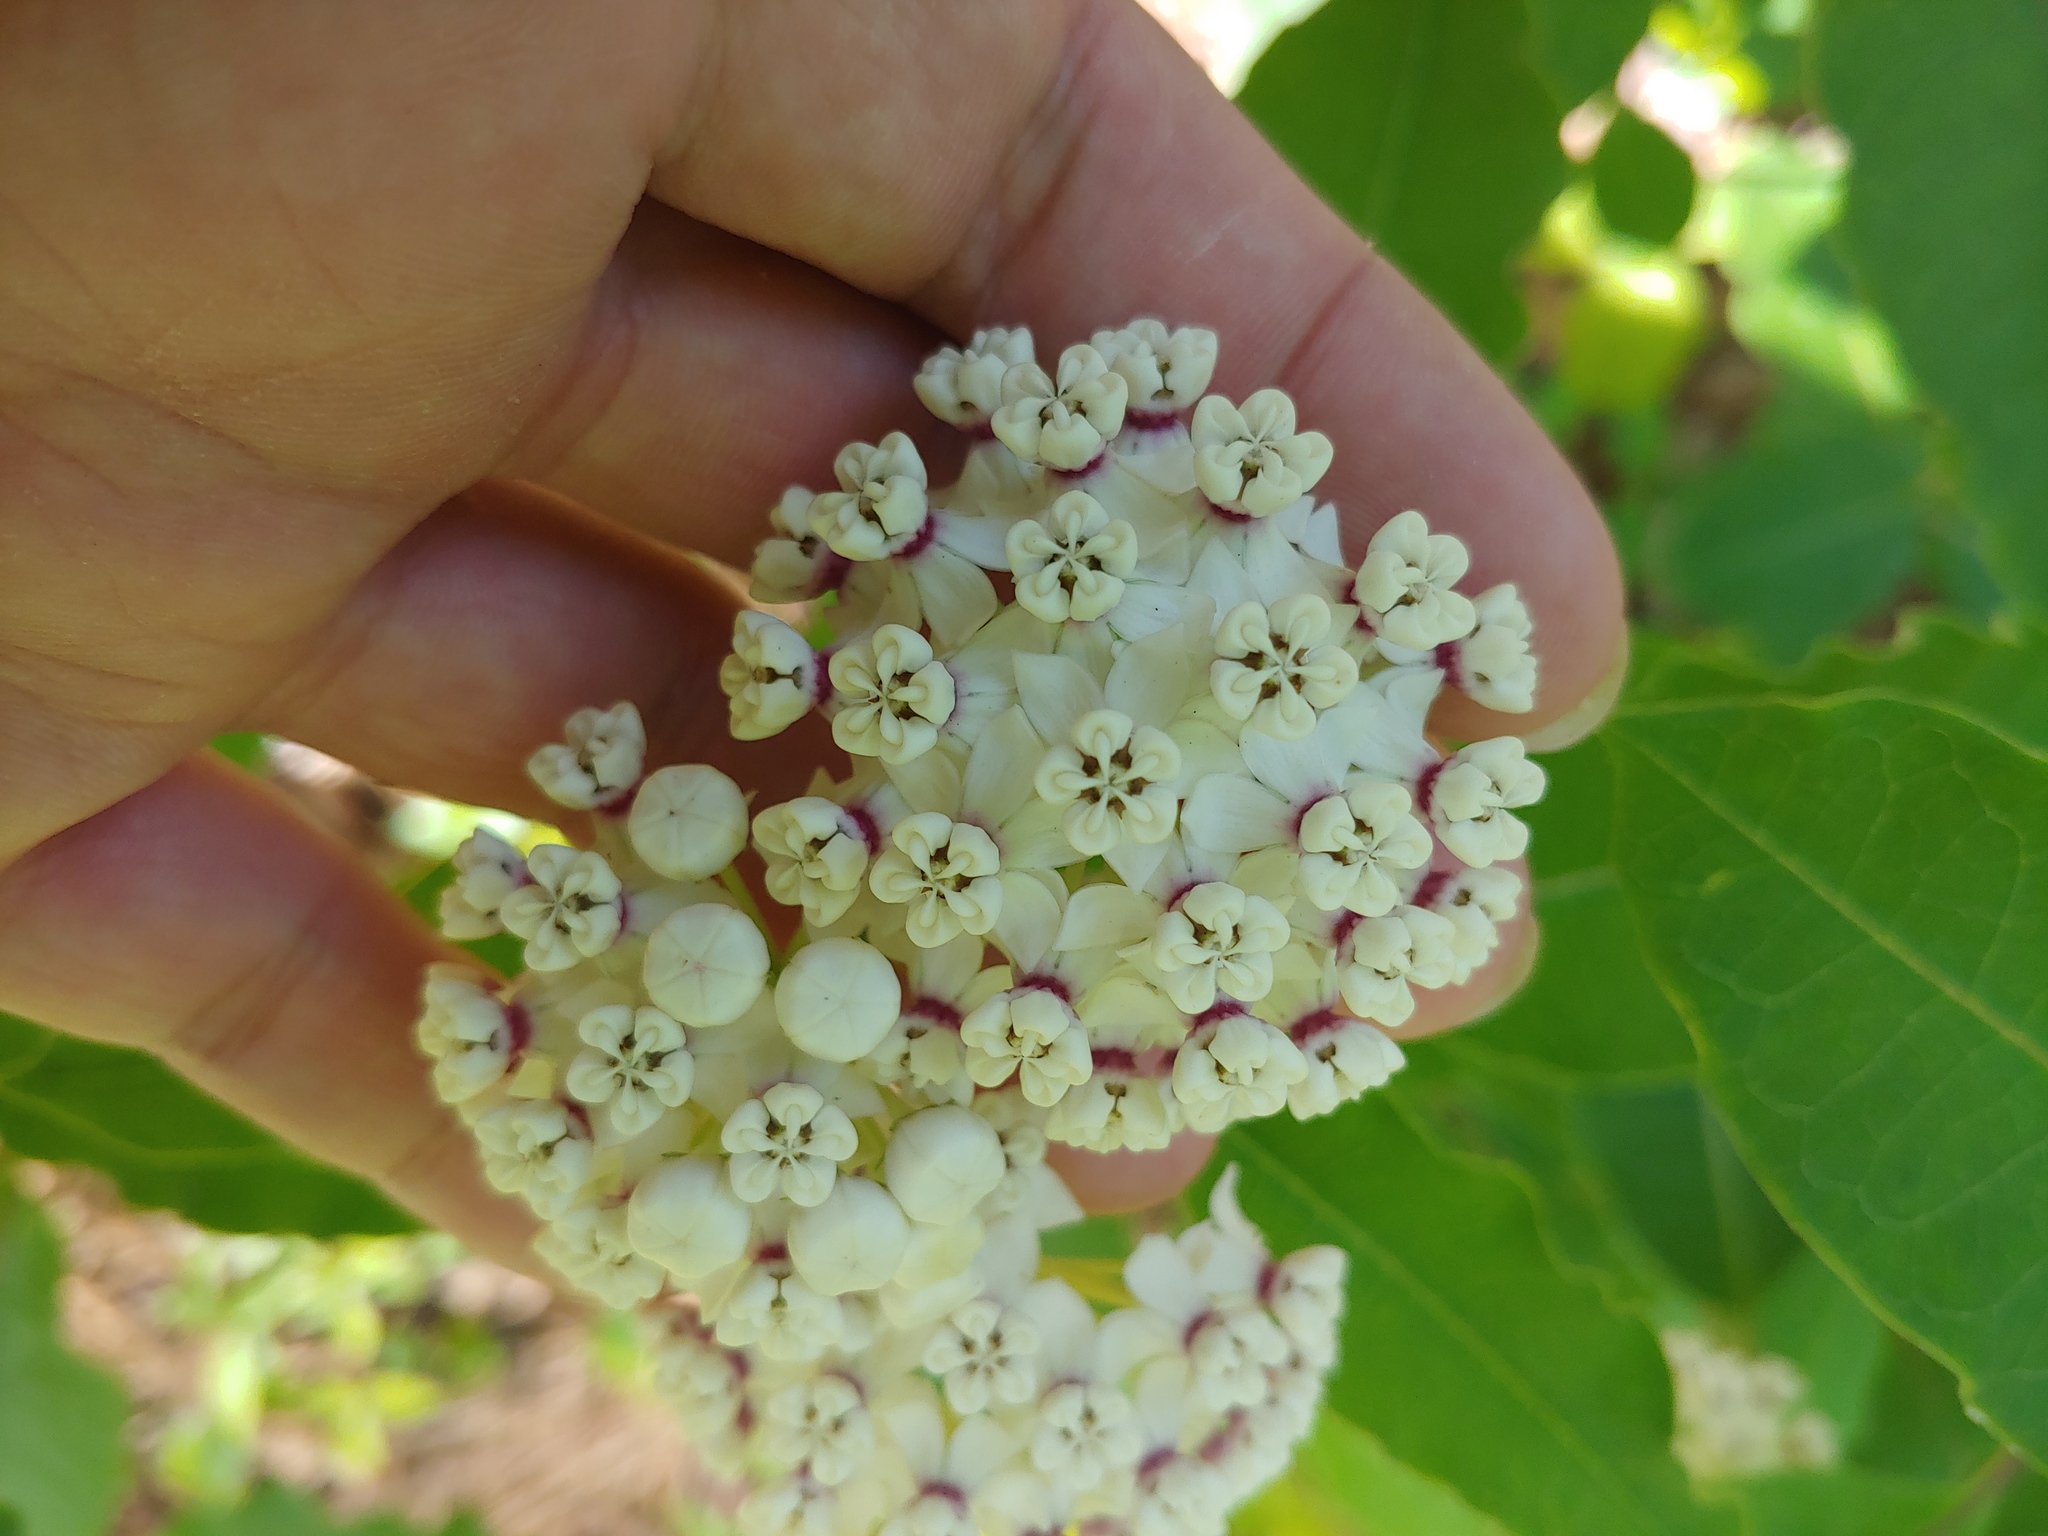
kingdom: Plantae
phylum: Tracheophyta
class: Magnoliopsida
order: Gentianales
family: Apocynaceae
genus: Asclepias
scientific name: Asclepias variegata
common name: Variegated milkweed
